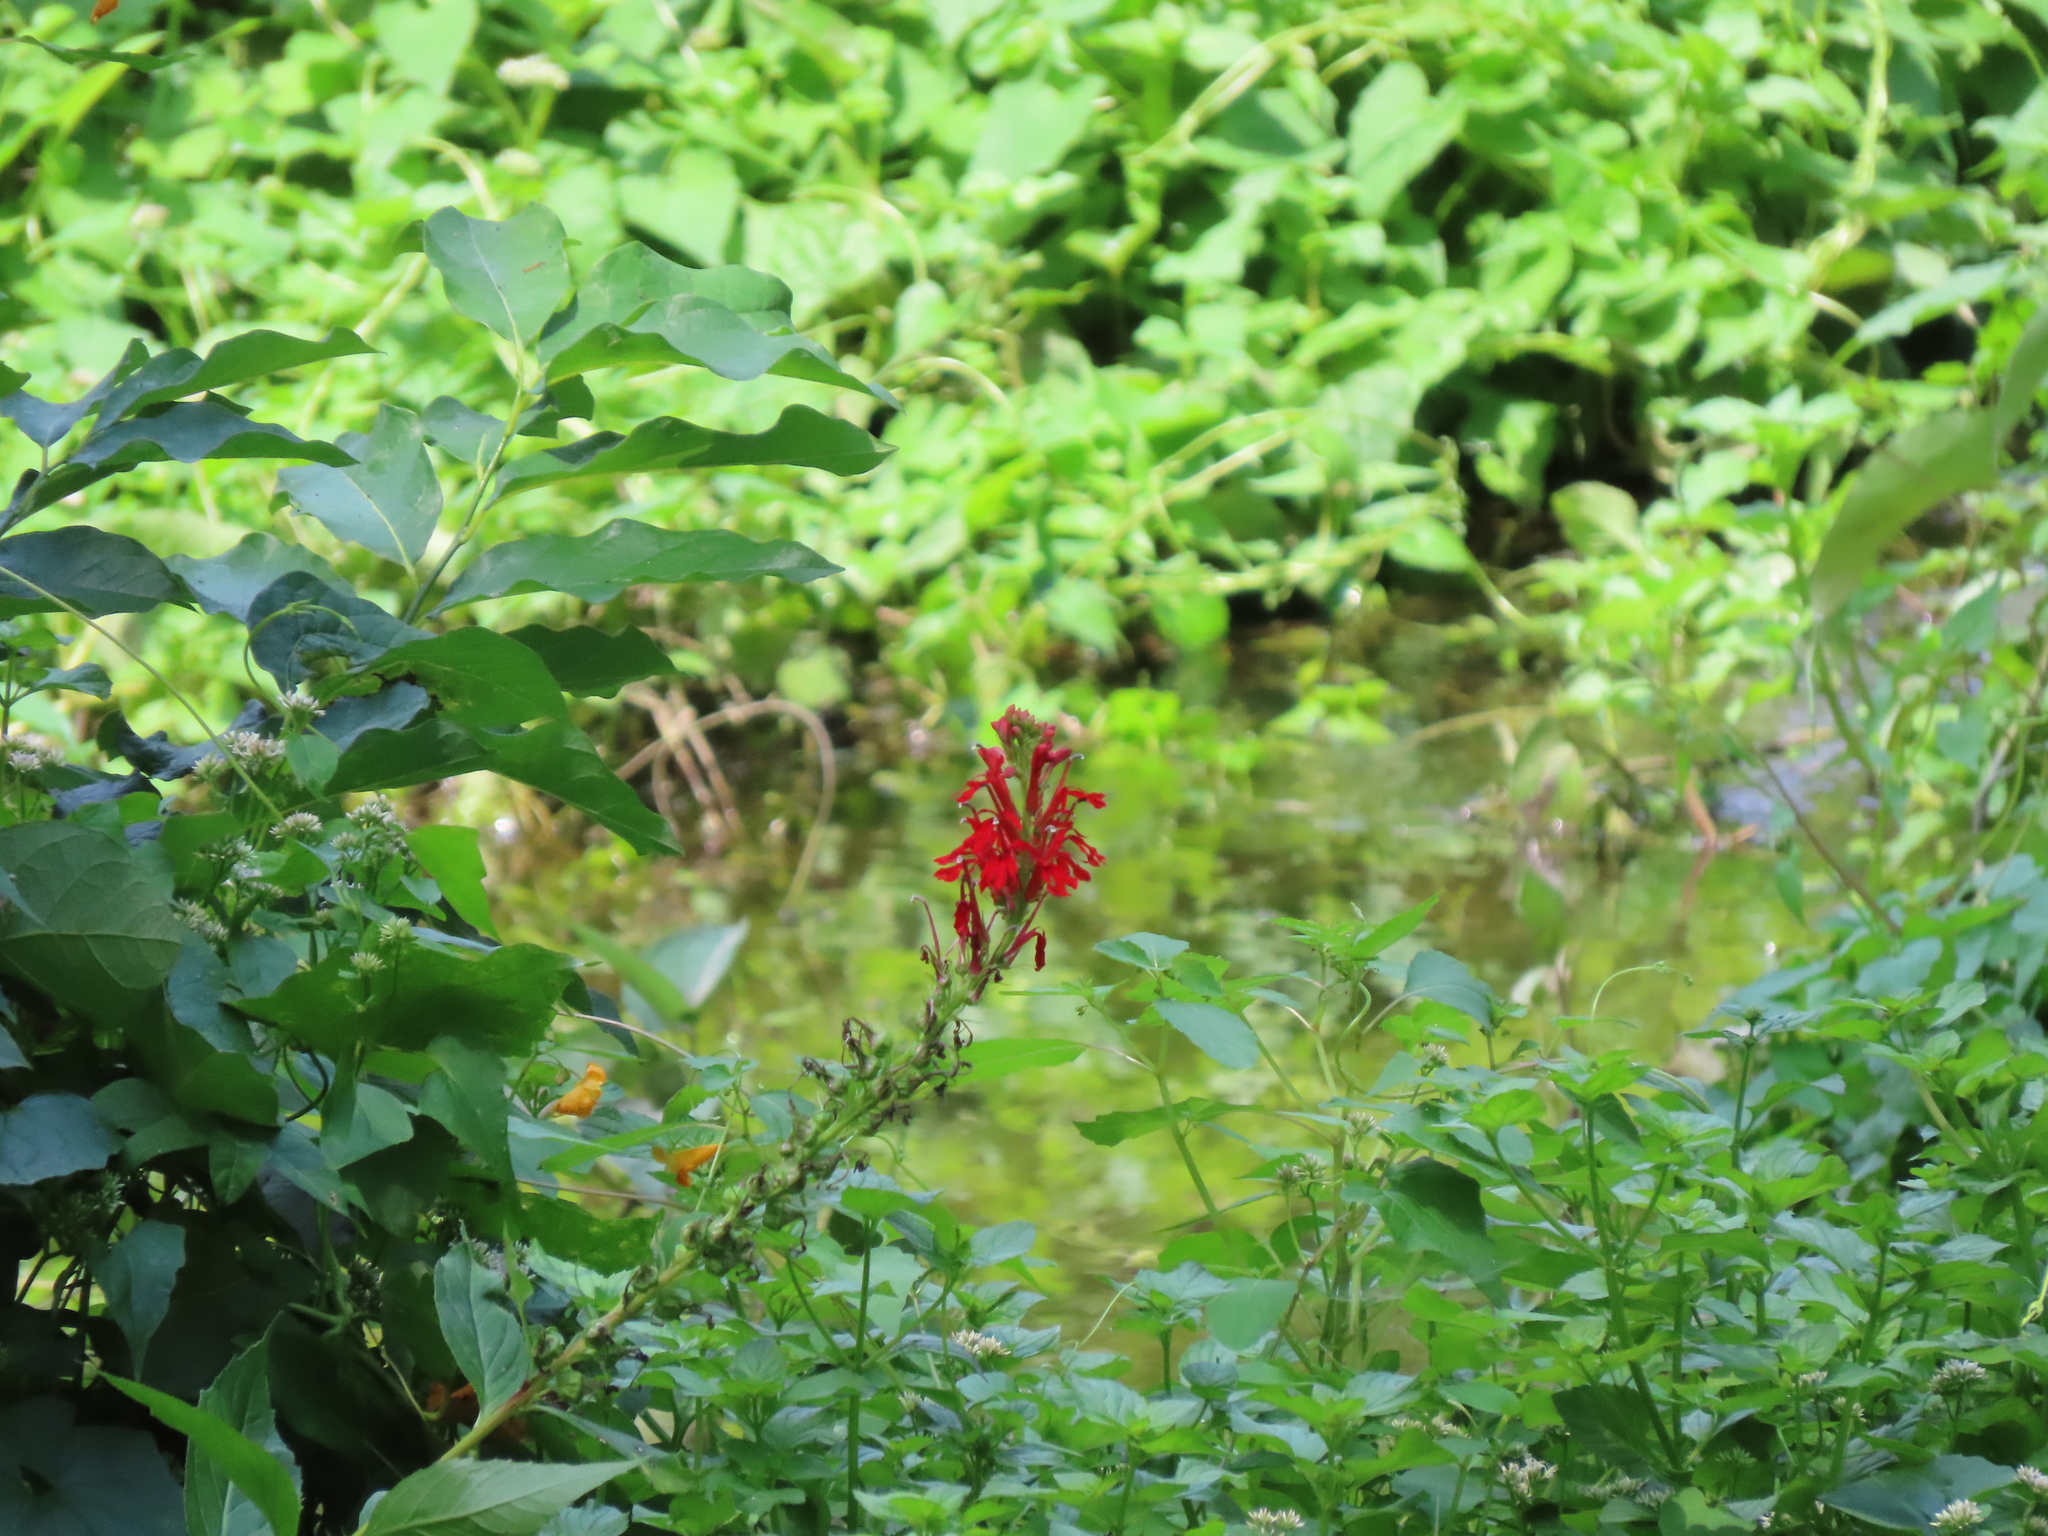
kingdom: Plantae
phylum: Tracheophyta
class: Magnoliopsida
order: Asterales
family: Campanulaceae
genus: Lobelia
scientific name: Lobelia cardinalis
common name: Cardinal flower
